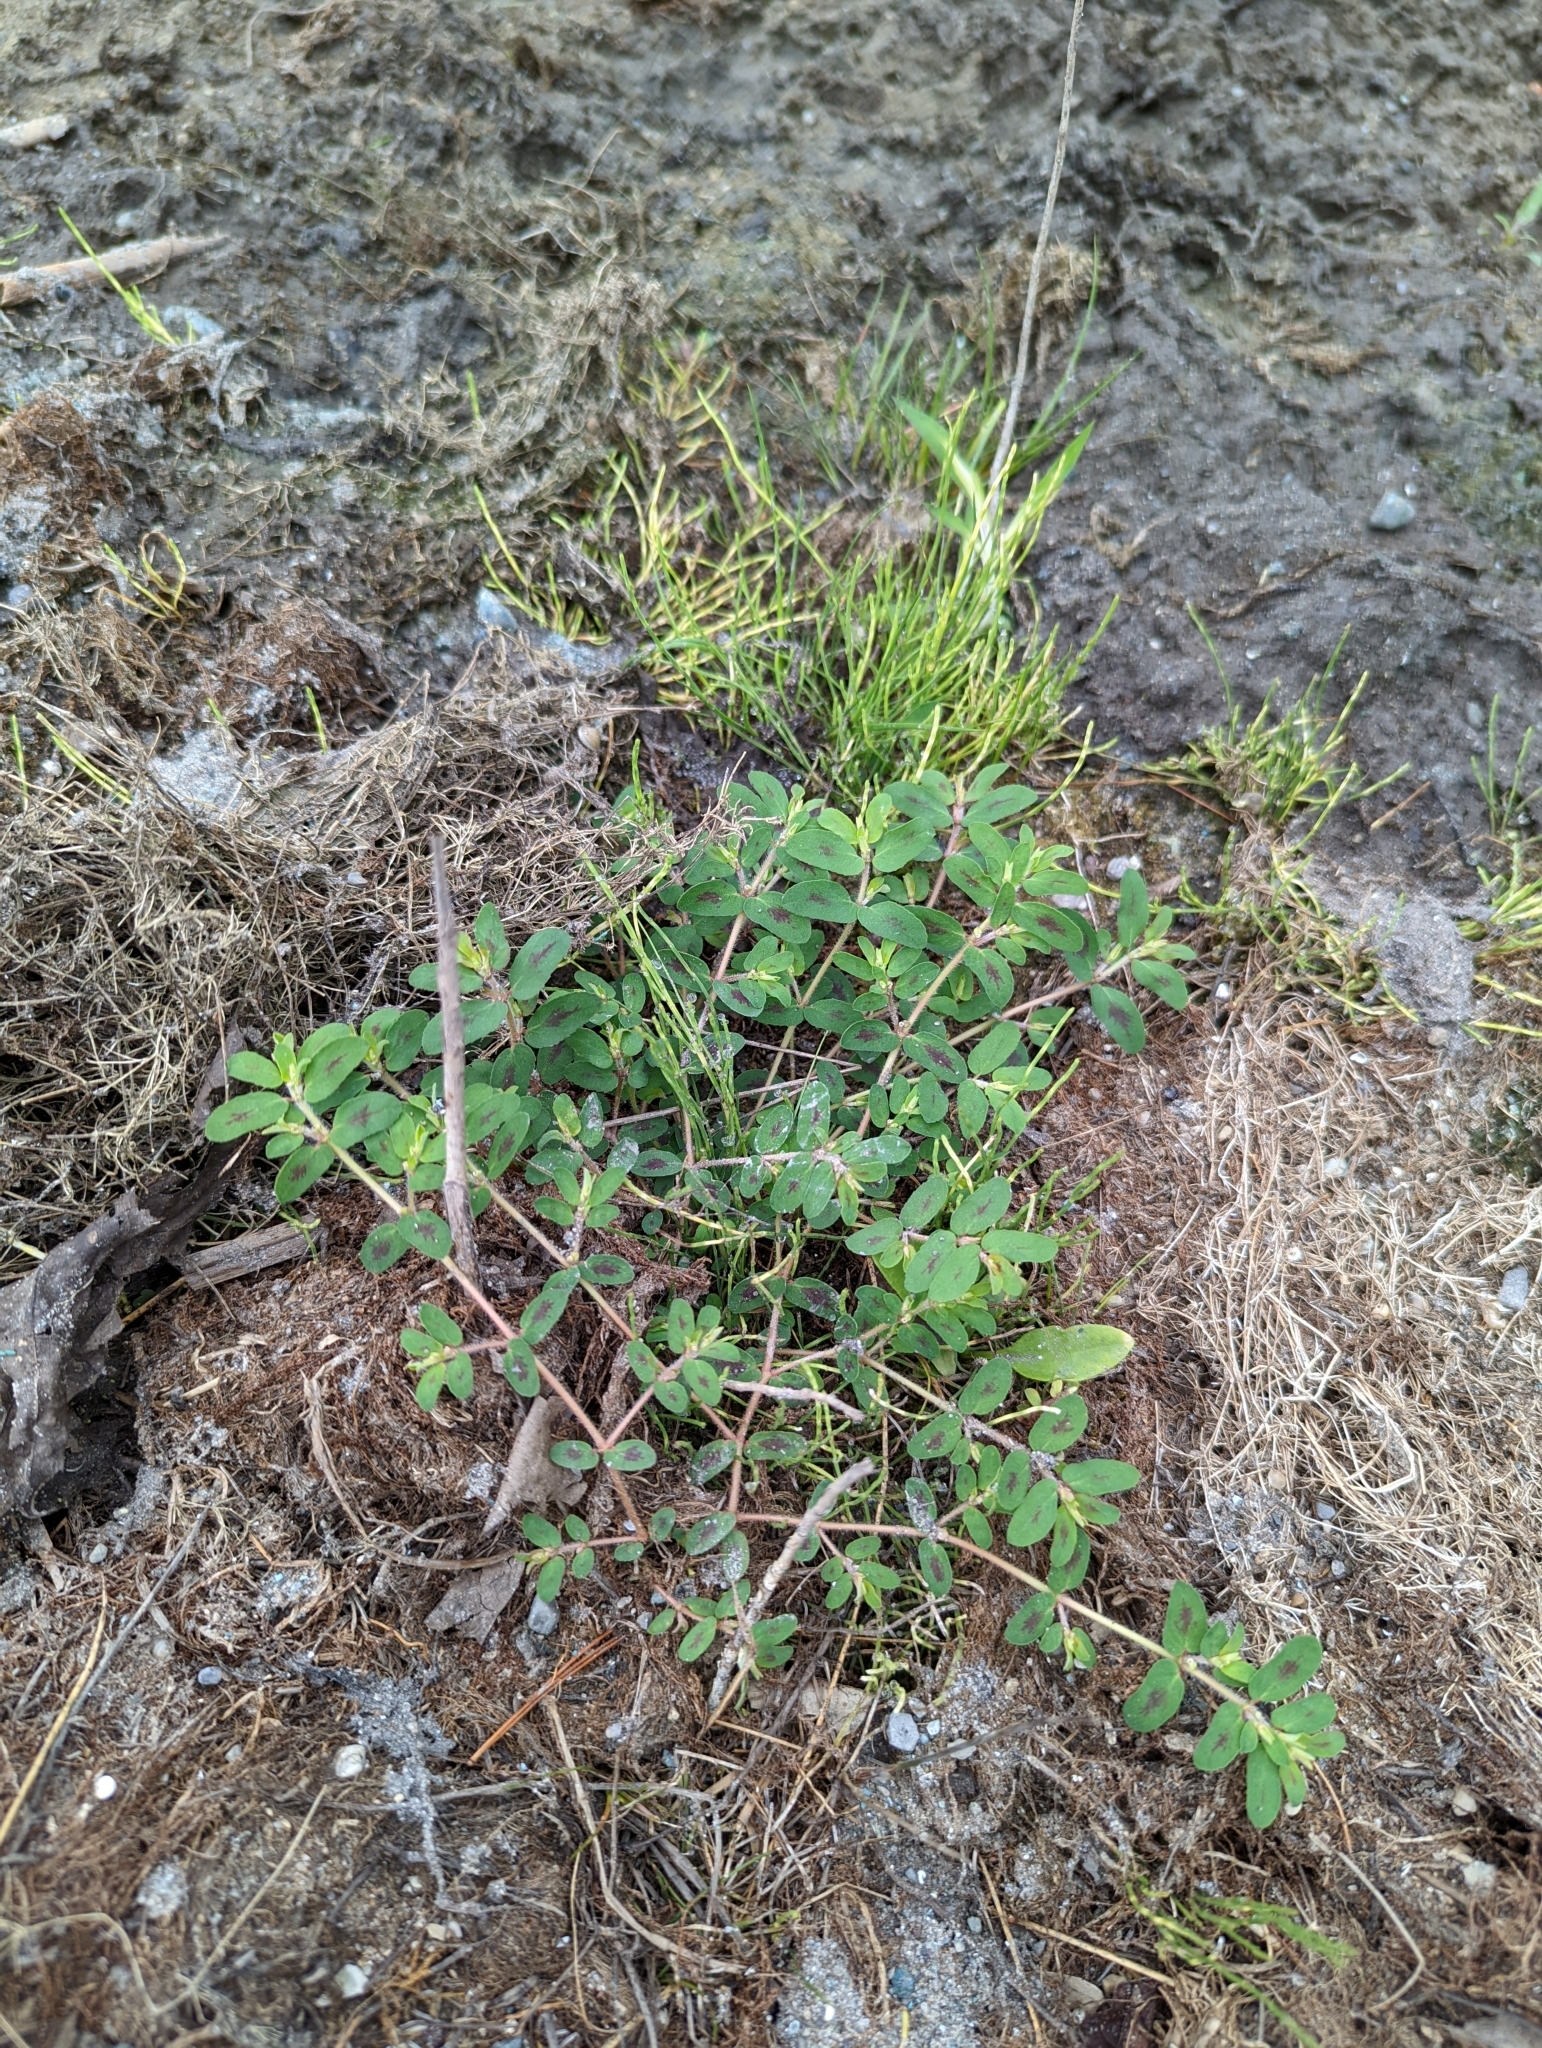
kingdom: Plantae
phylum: Tracheophyta
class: Magnoliopsida
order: Malpighiales
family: Euphorbiaceae
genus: Euphorbia
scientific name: Euphorbia maculata
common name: Spotted spurge
